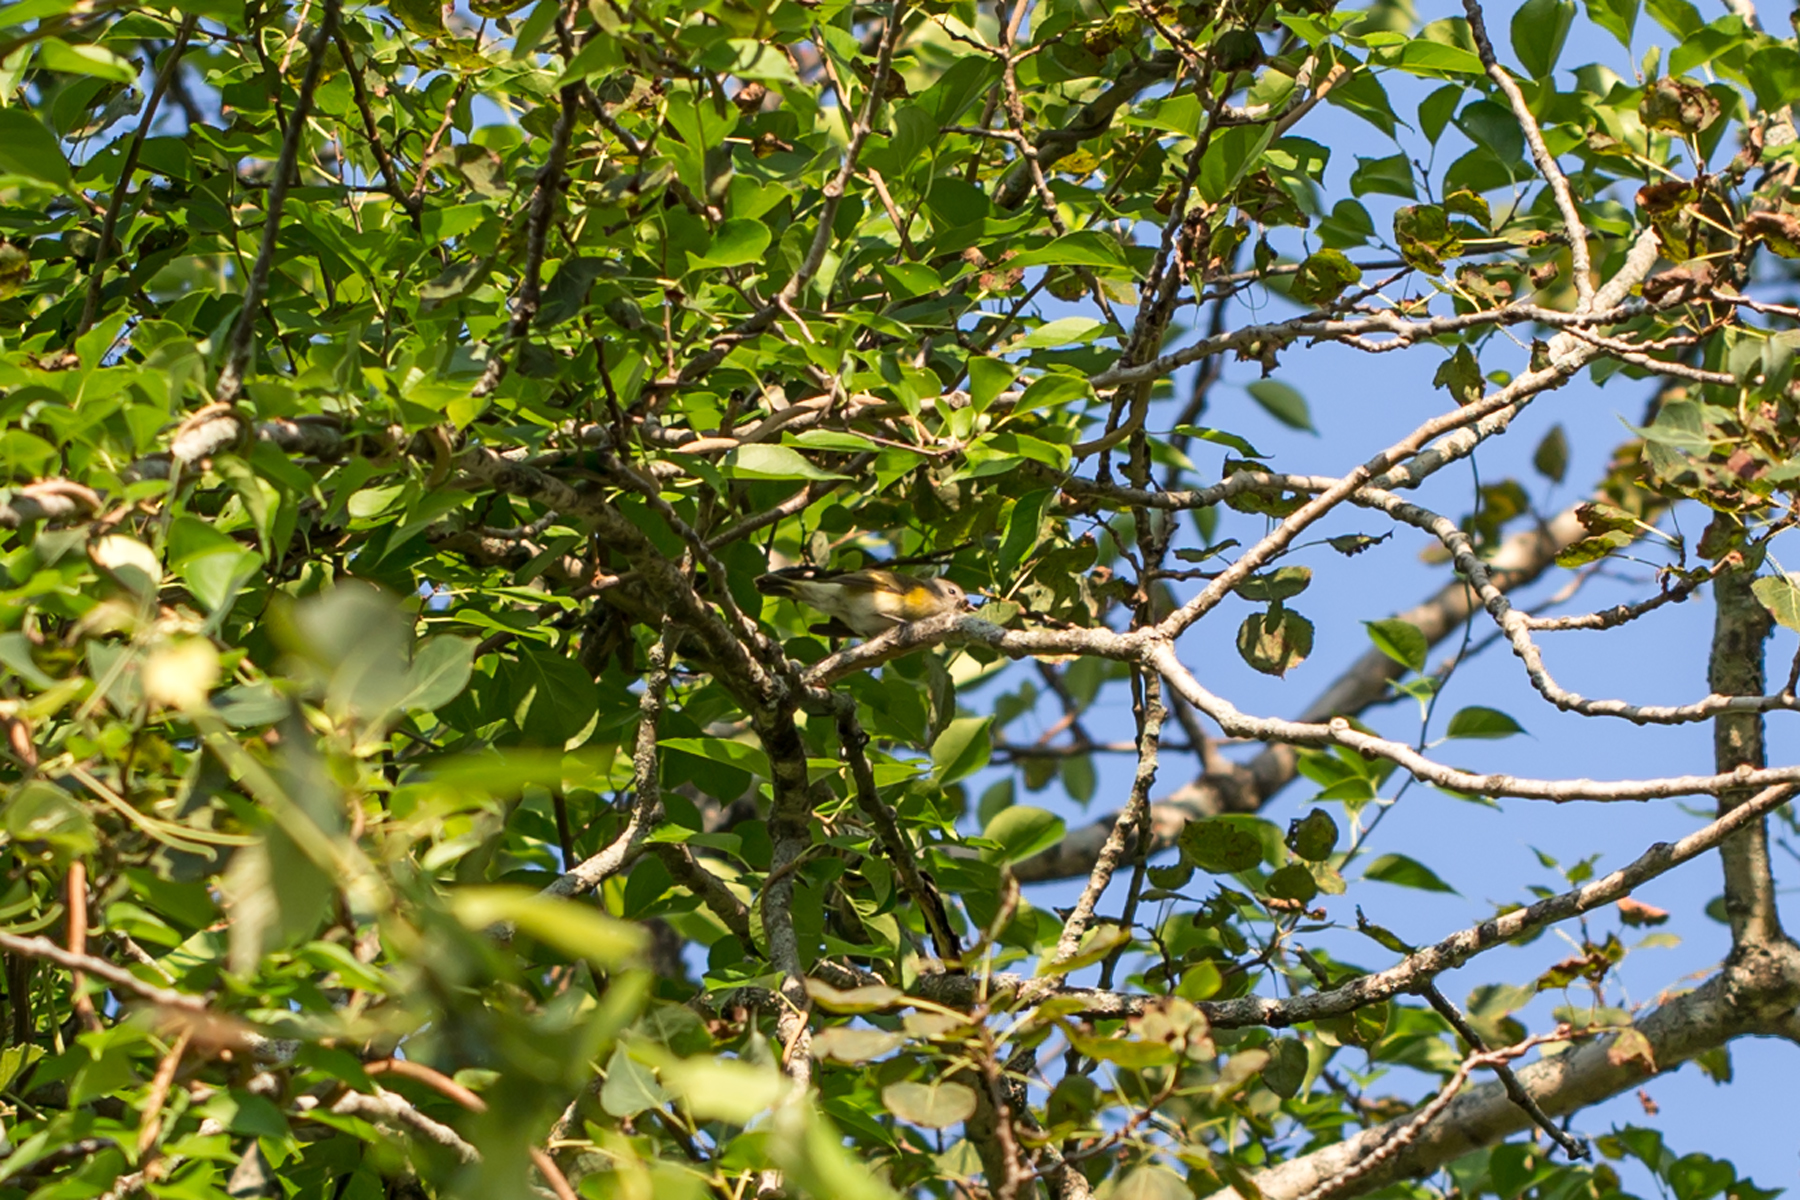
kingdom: Animalia
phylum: Chordata
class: Aves
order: Passeriformes
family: Parulidae
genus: Setophaga
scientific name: Setophaga ruticilla
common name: American redstart
